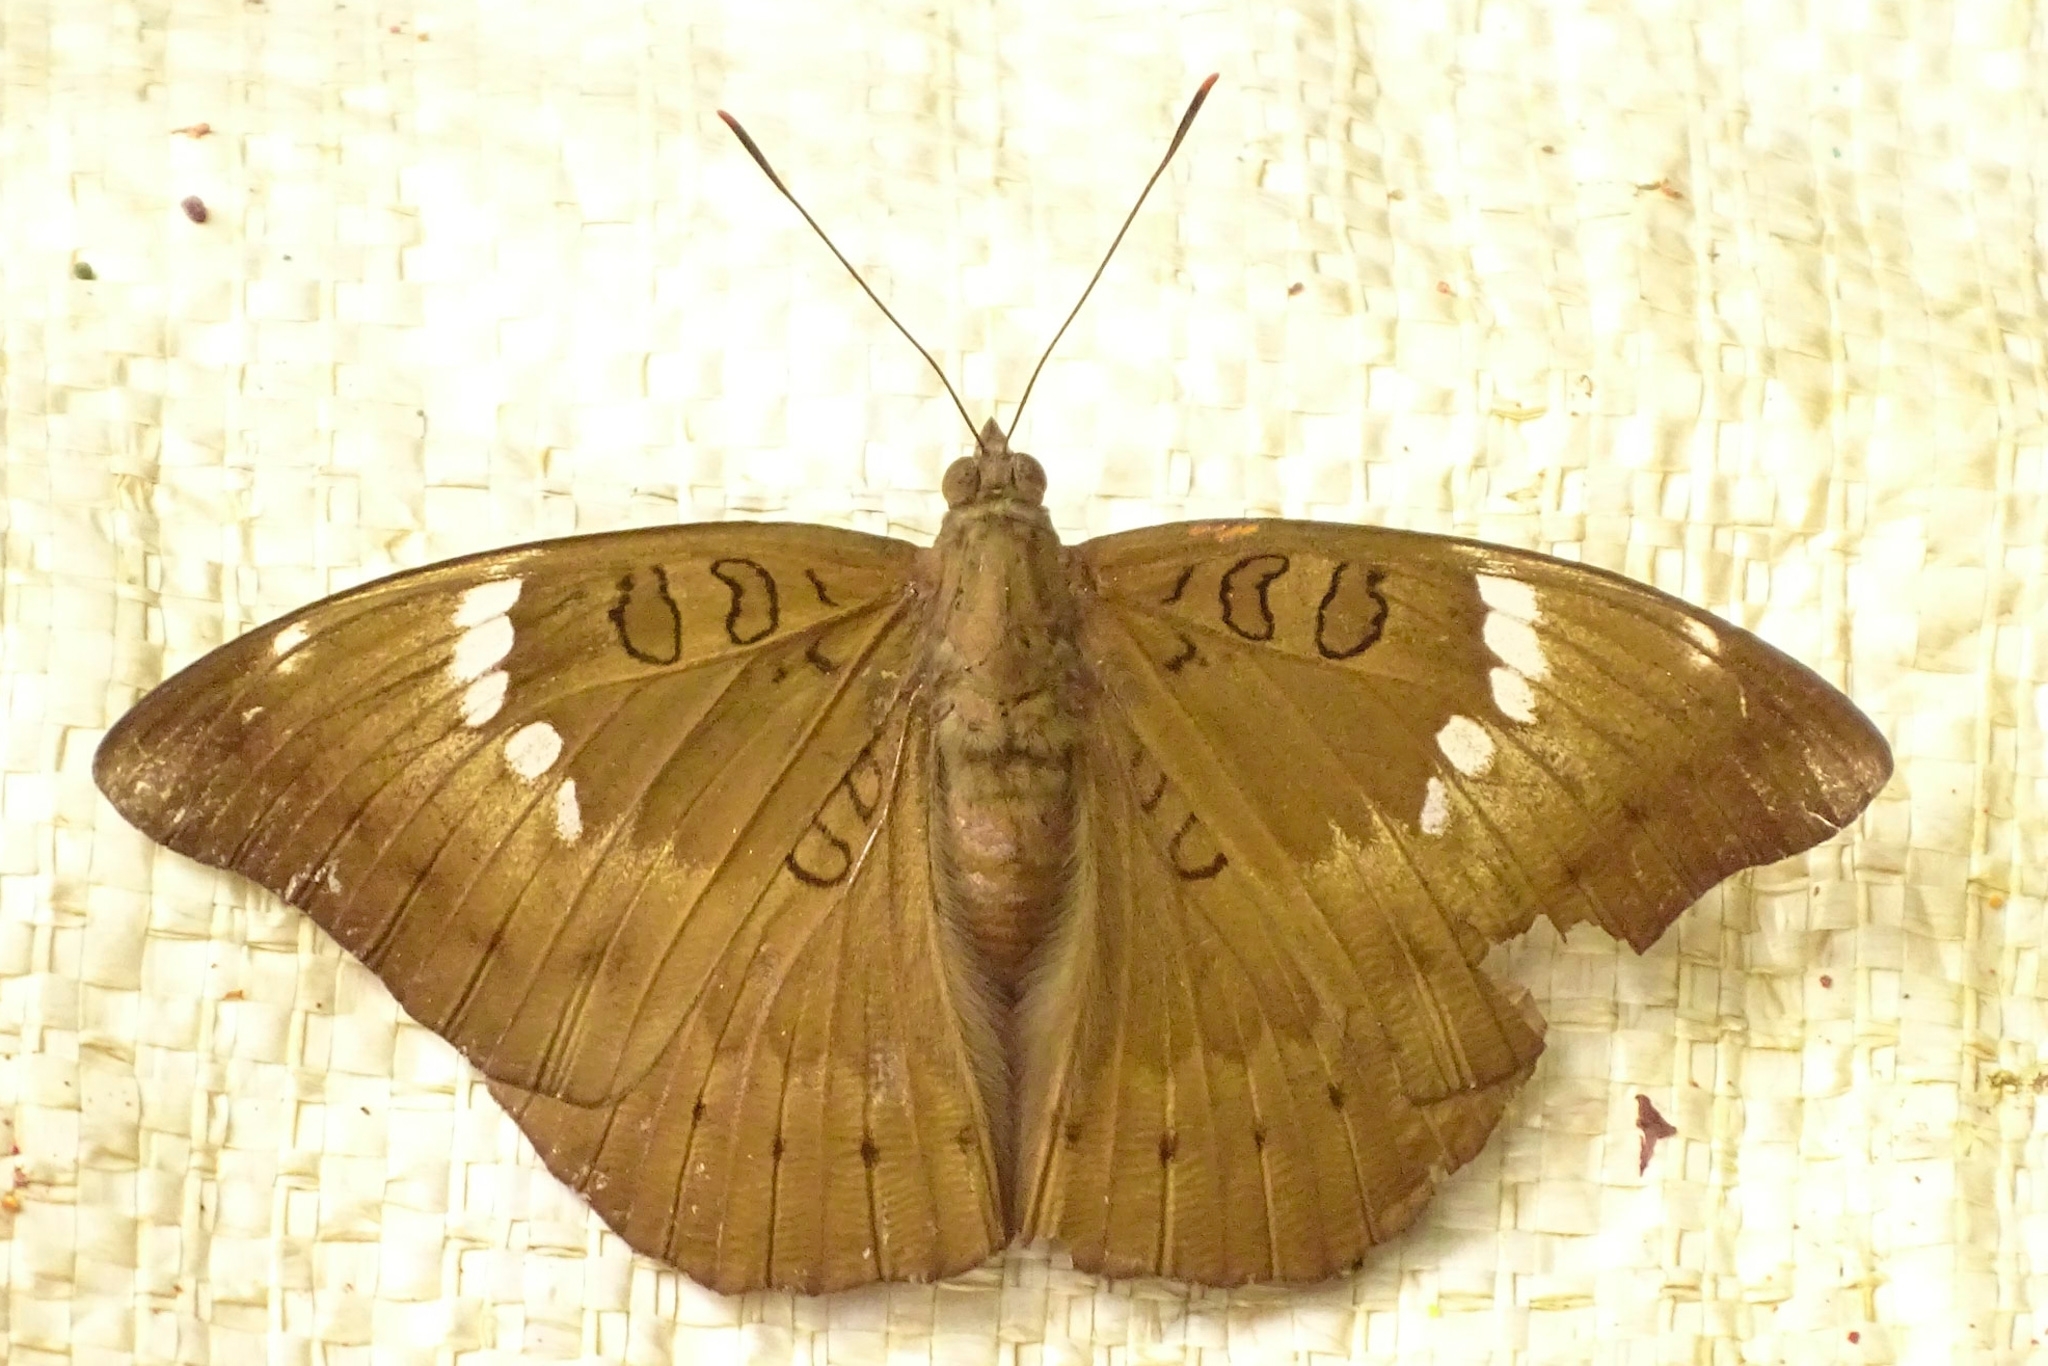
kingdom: Animalia
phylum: Arthropoda
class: Insecta
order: Lepidoptera
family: Nymphalidae
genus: Euthalia
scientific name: Euthalia aconthea
